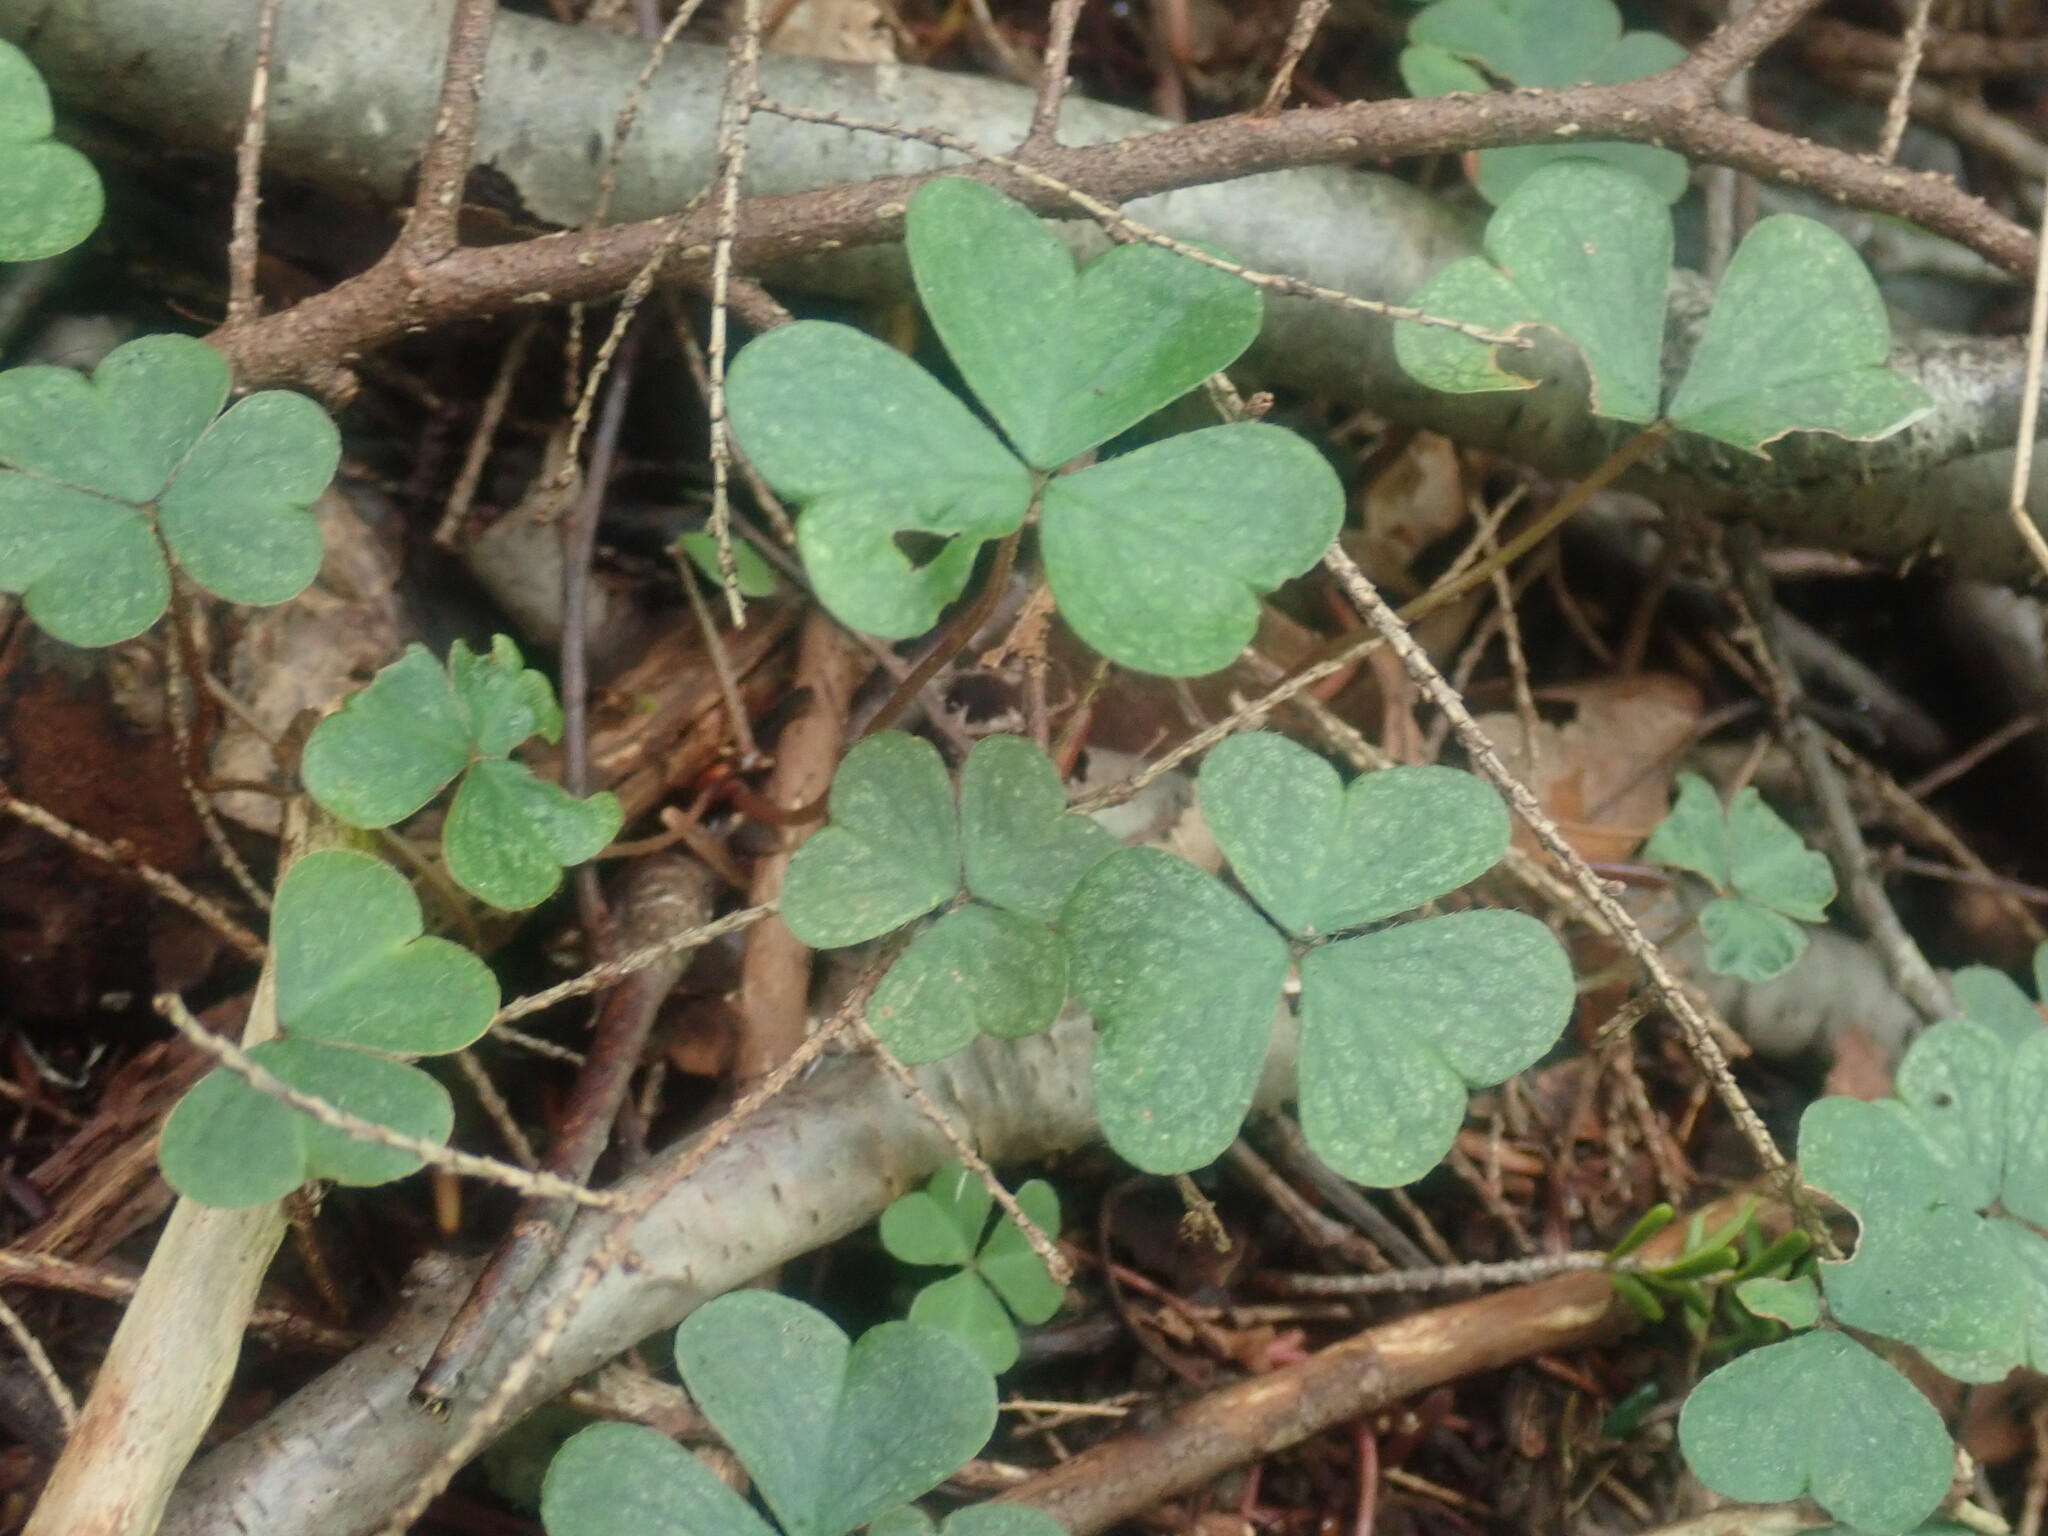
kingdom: Plantae
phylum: Tracheophyta
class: Magnoliopsida
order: Oxalidales
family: Oxalidaceae
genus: Oxalis
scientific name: Oxalis montana
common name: American wood-sorrel
